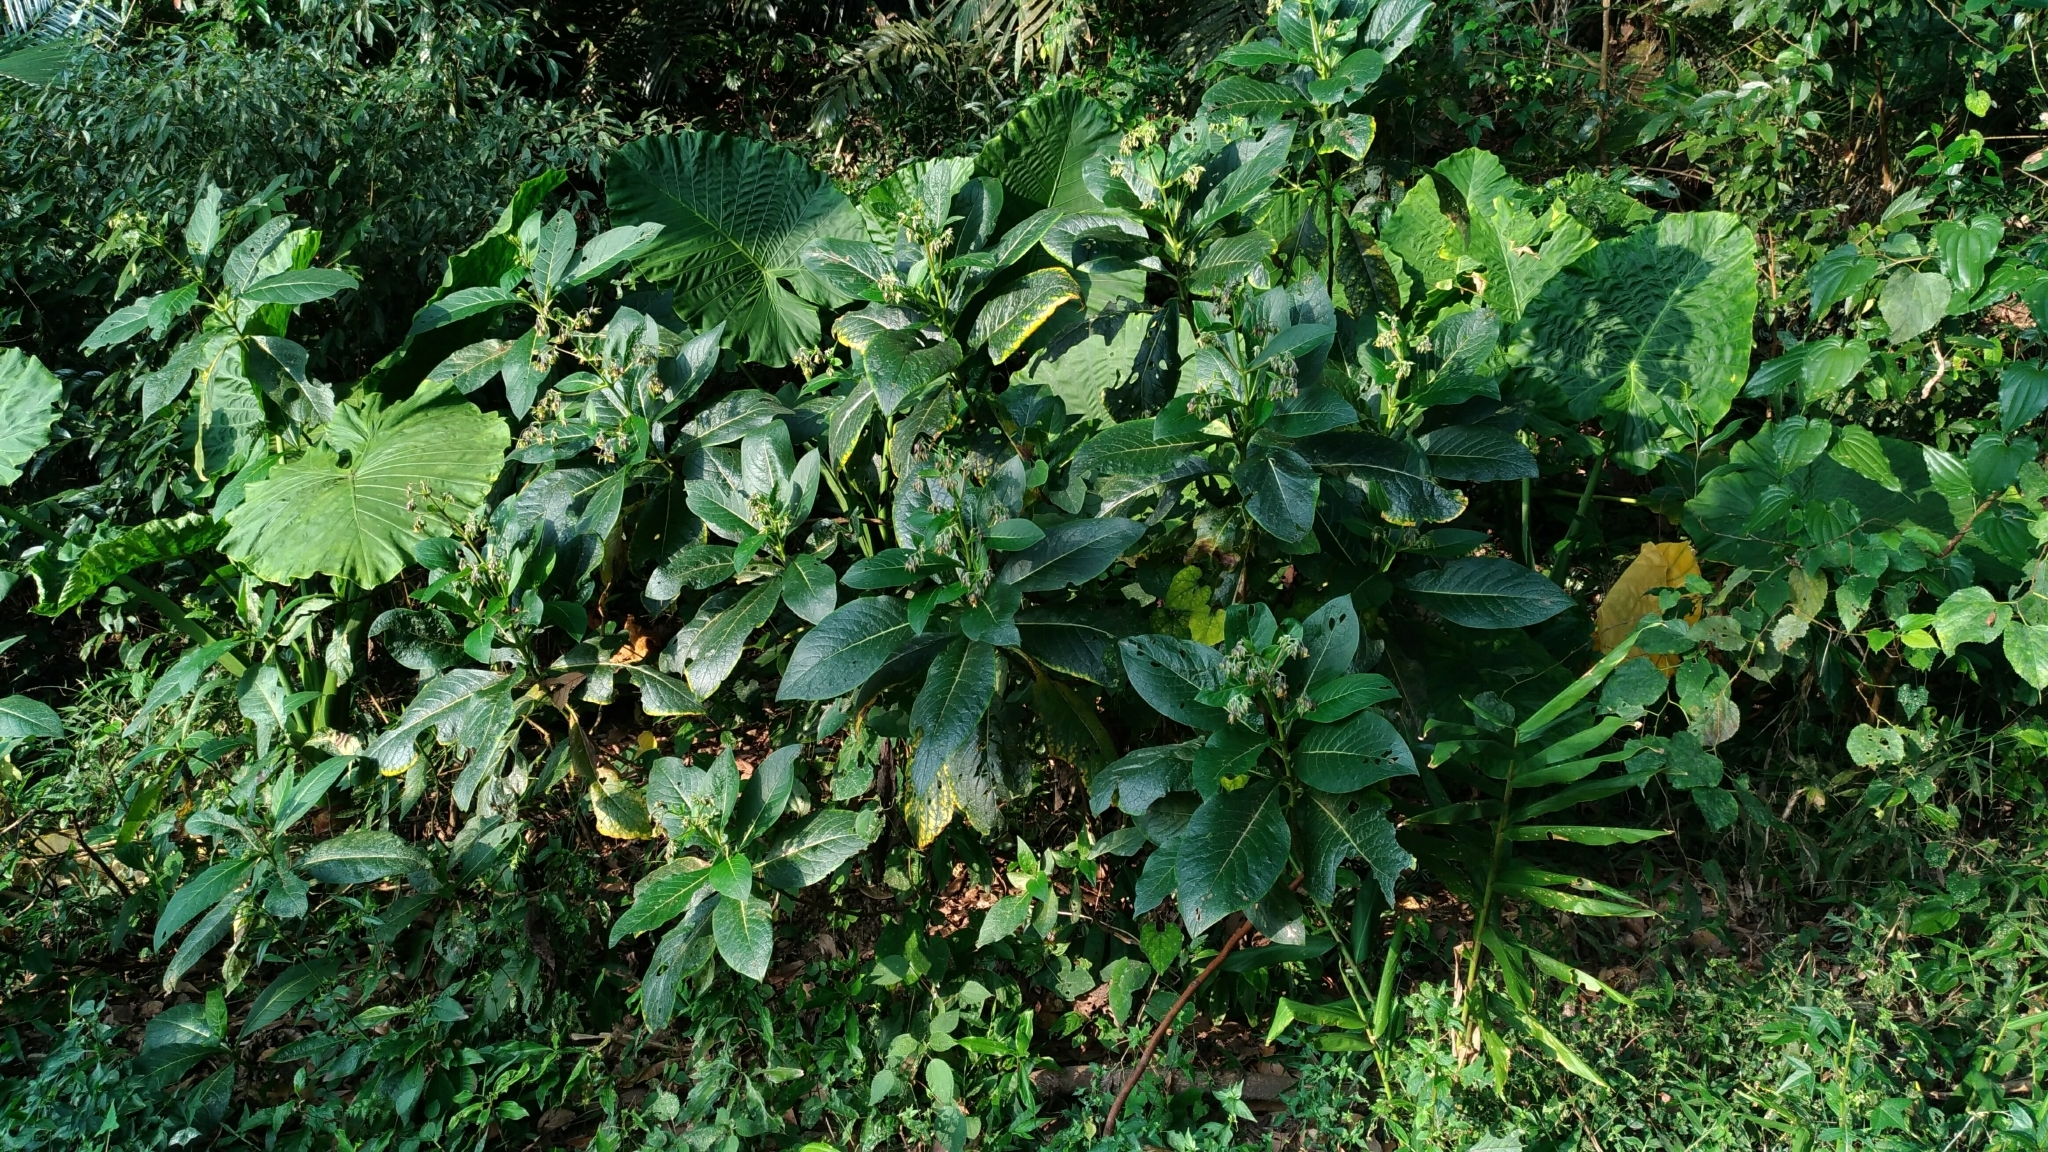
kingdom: Plantae
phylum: Tracheophyta
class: Magnoliopsida
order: Boraginales
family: Boraginaceae
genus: Trichodesma
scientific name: Trichodesma calycosum
